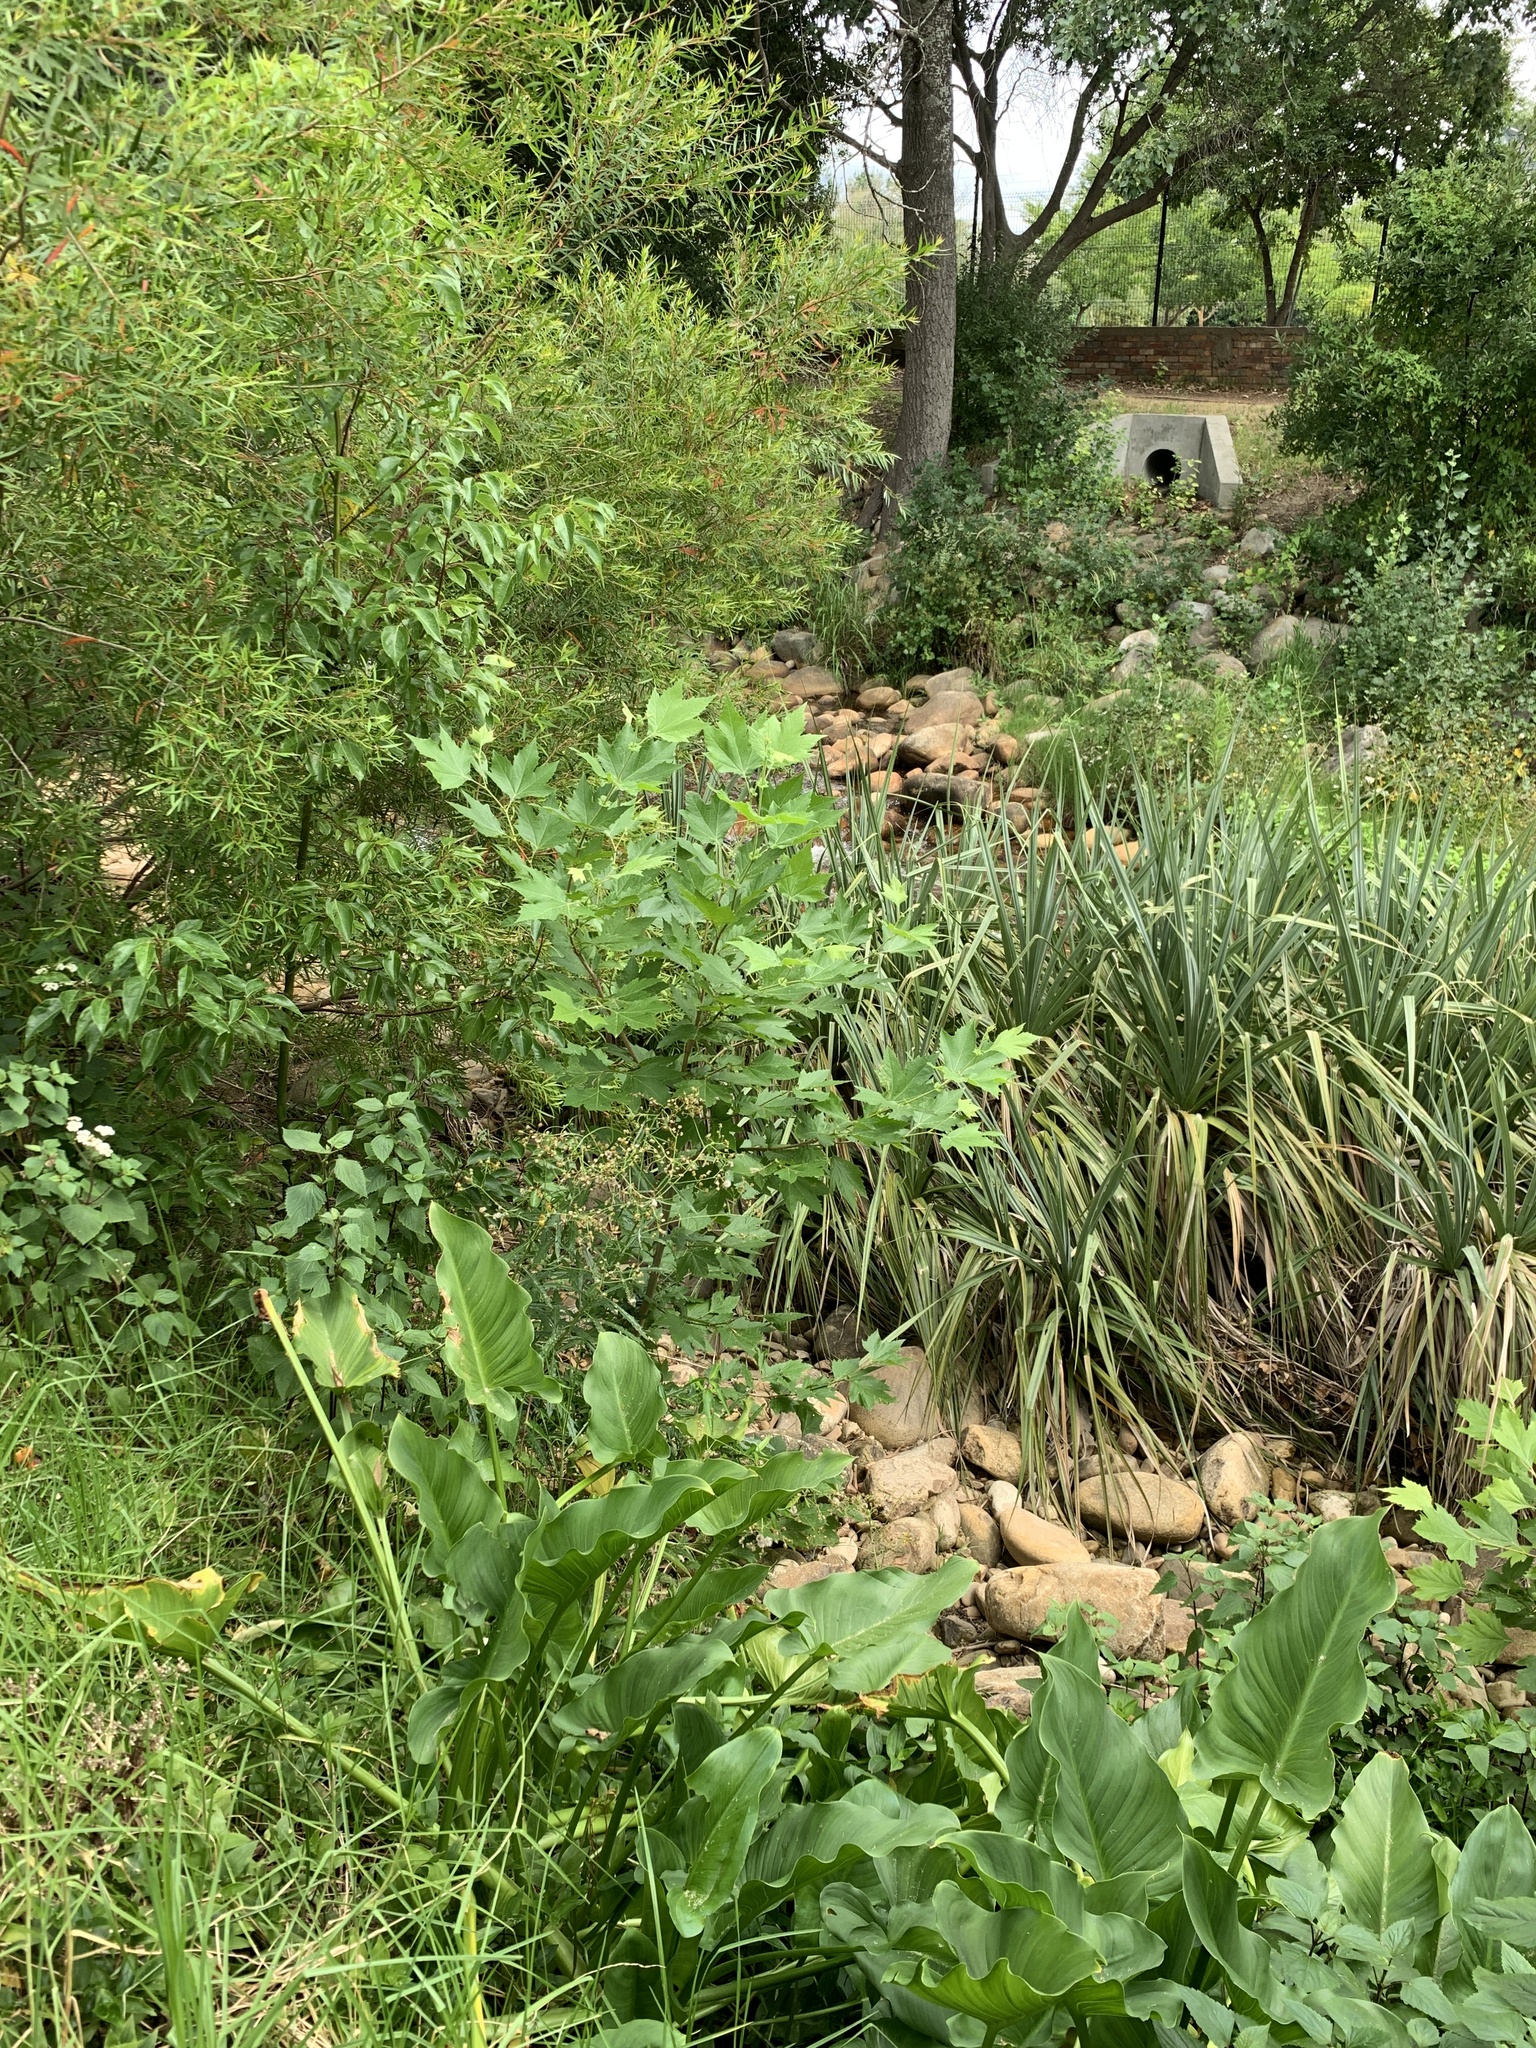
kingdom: Plantae
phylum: Tracheophyta
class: Magnoliopsida
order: Proteales
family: Platanaceae
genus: Platanus
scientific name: Platanus hispanica
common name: London plane
